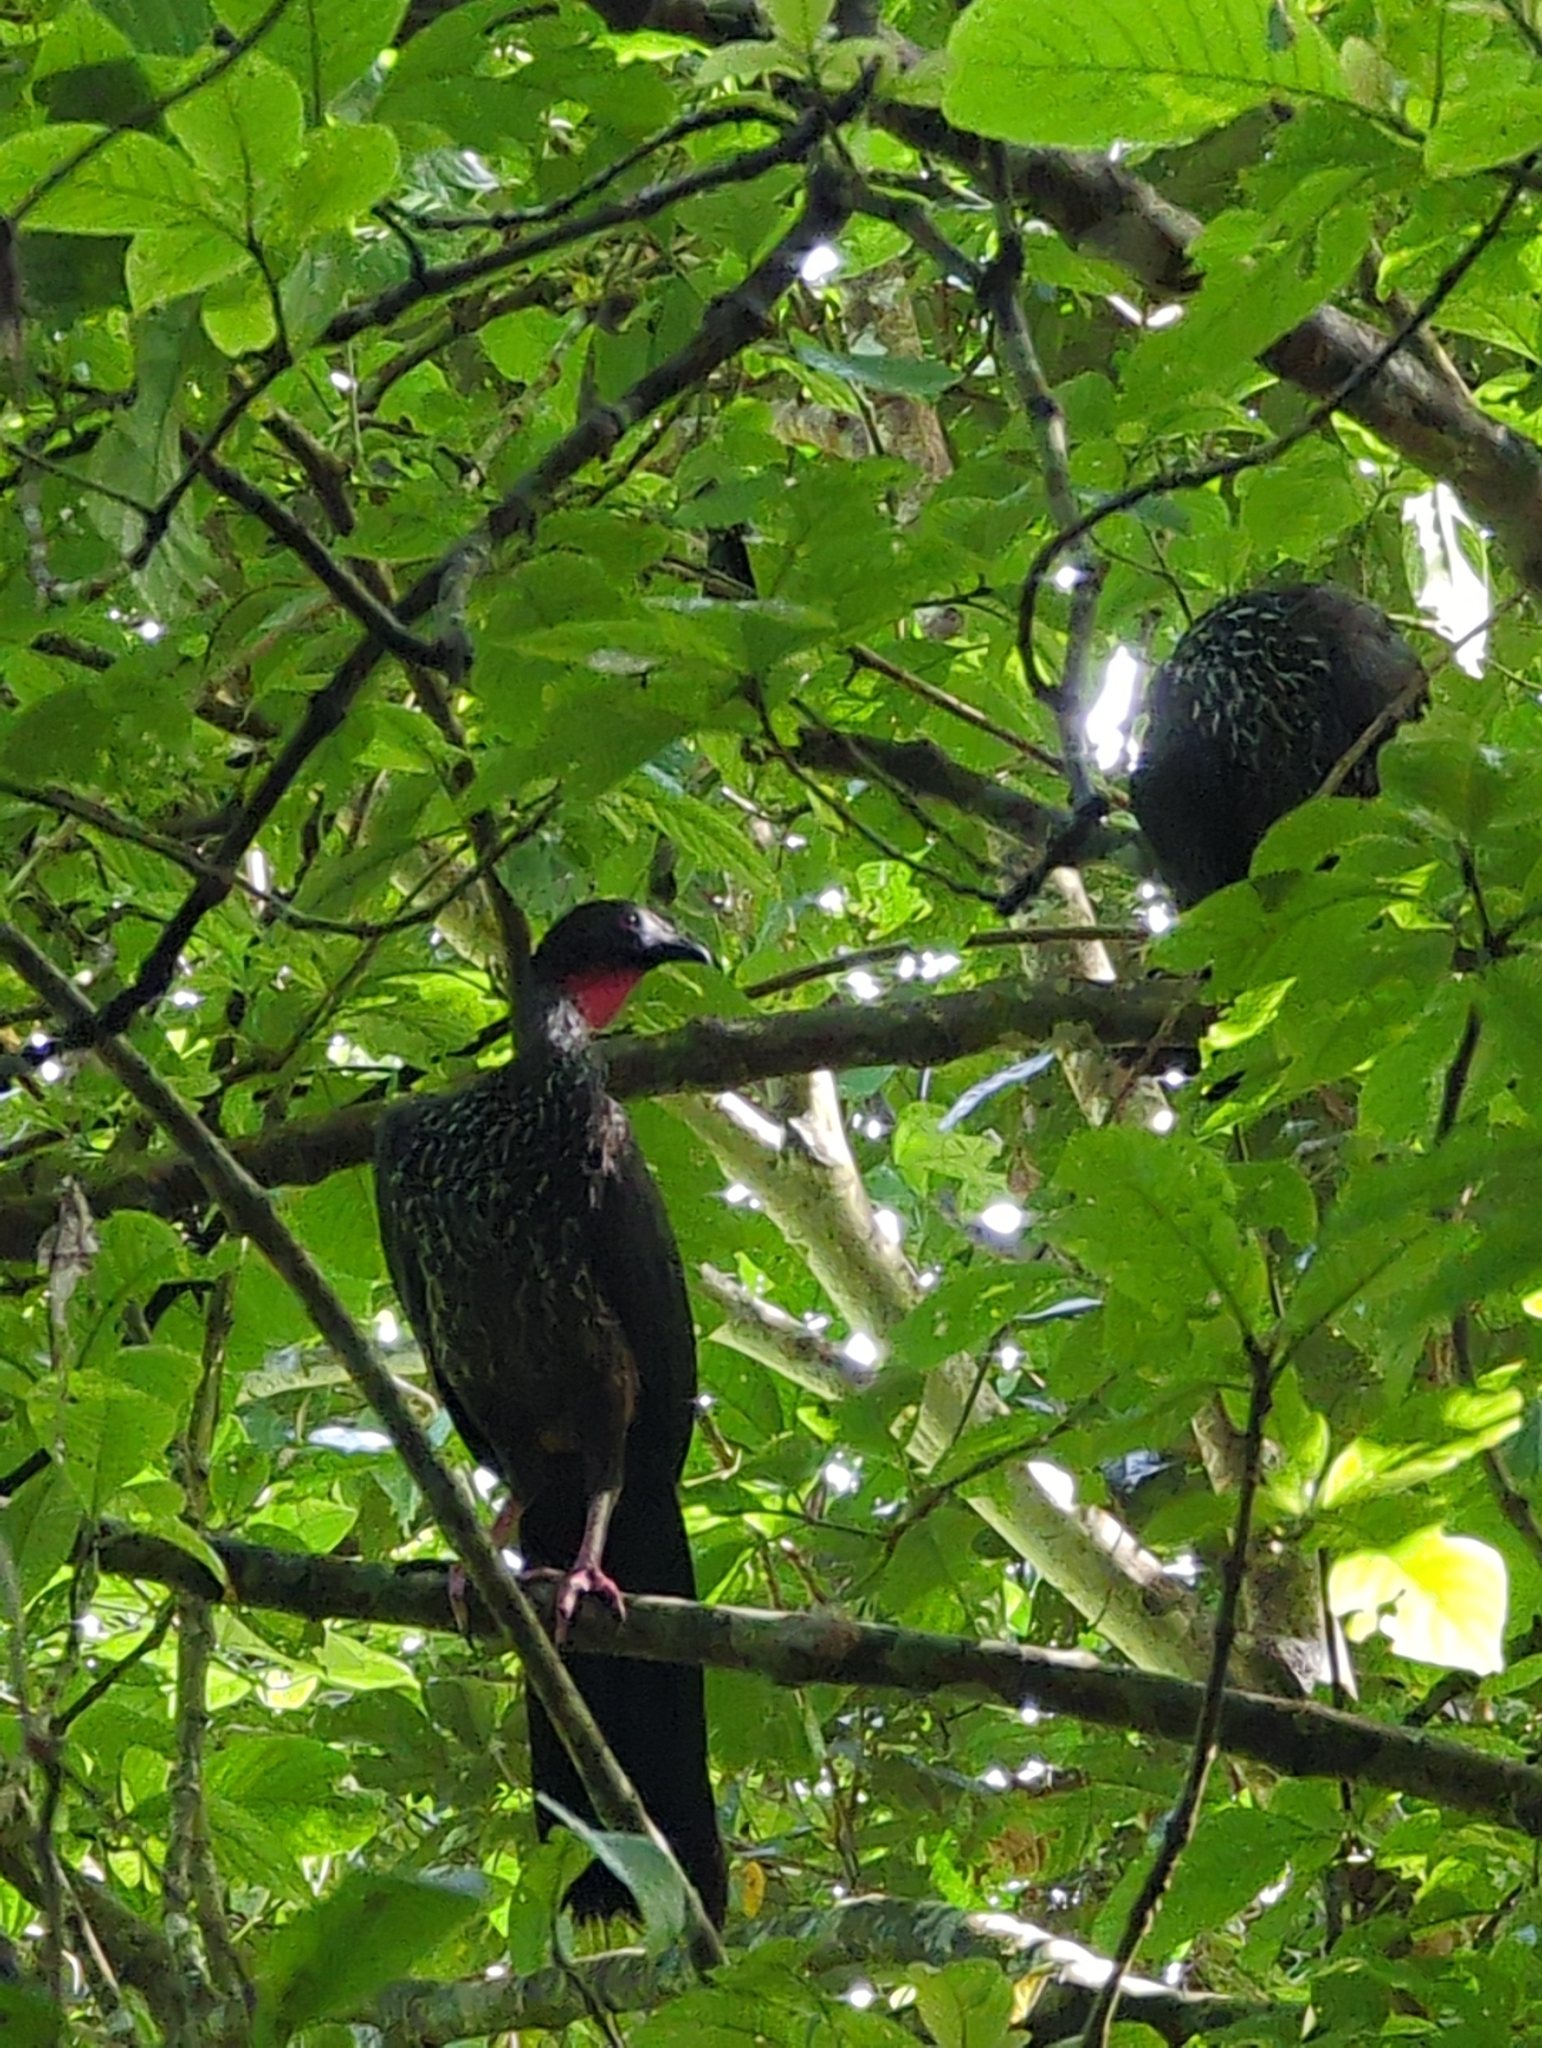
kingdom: Animalia
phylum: Chordata
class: Aves
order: Galliformes
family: Cracidae
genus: Penelope
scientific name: Penelope purpurascens
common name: Crested guan
